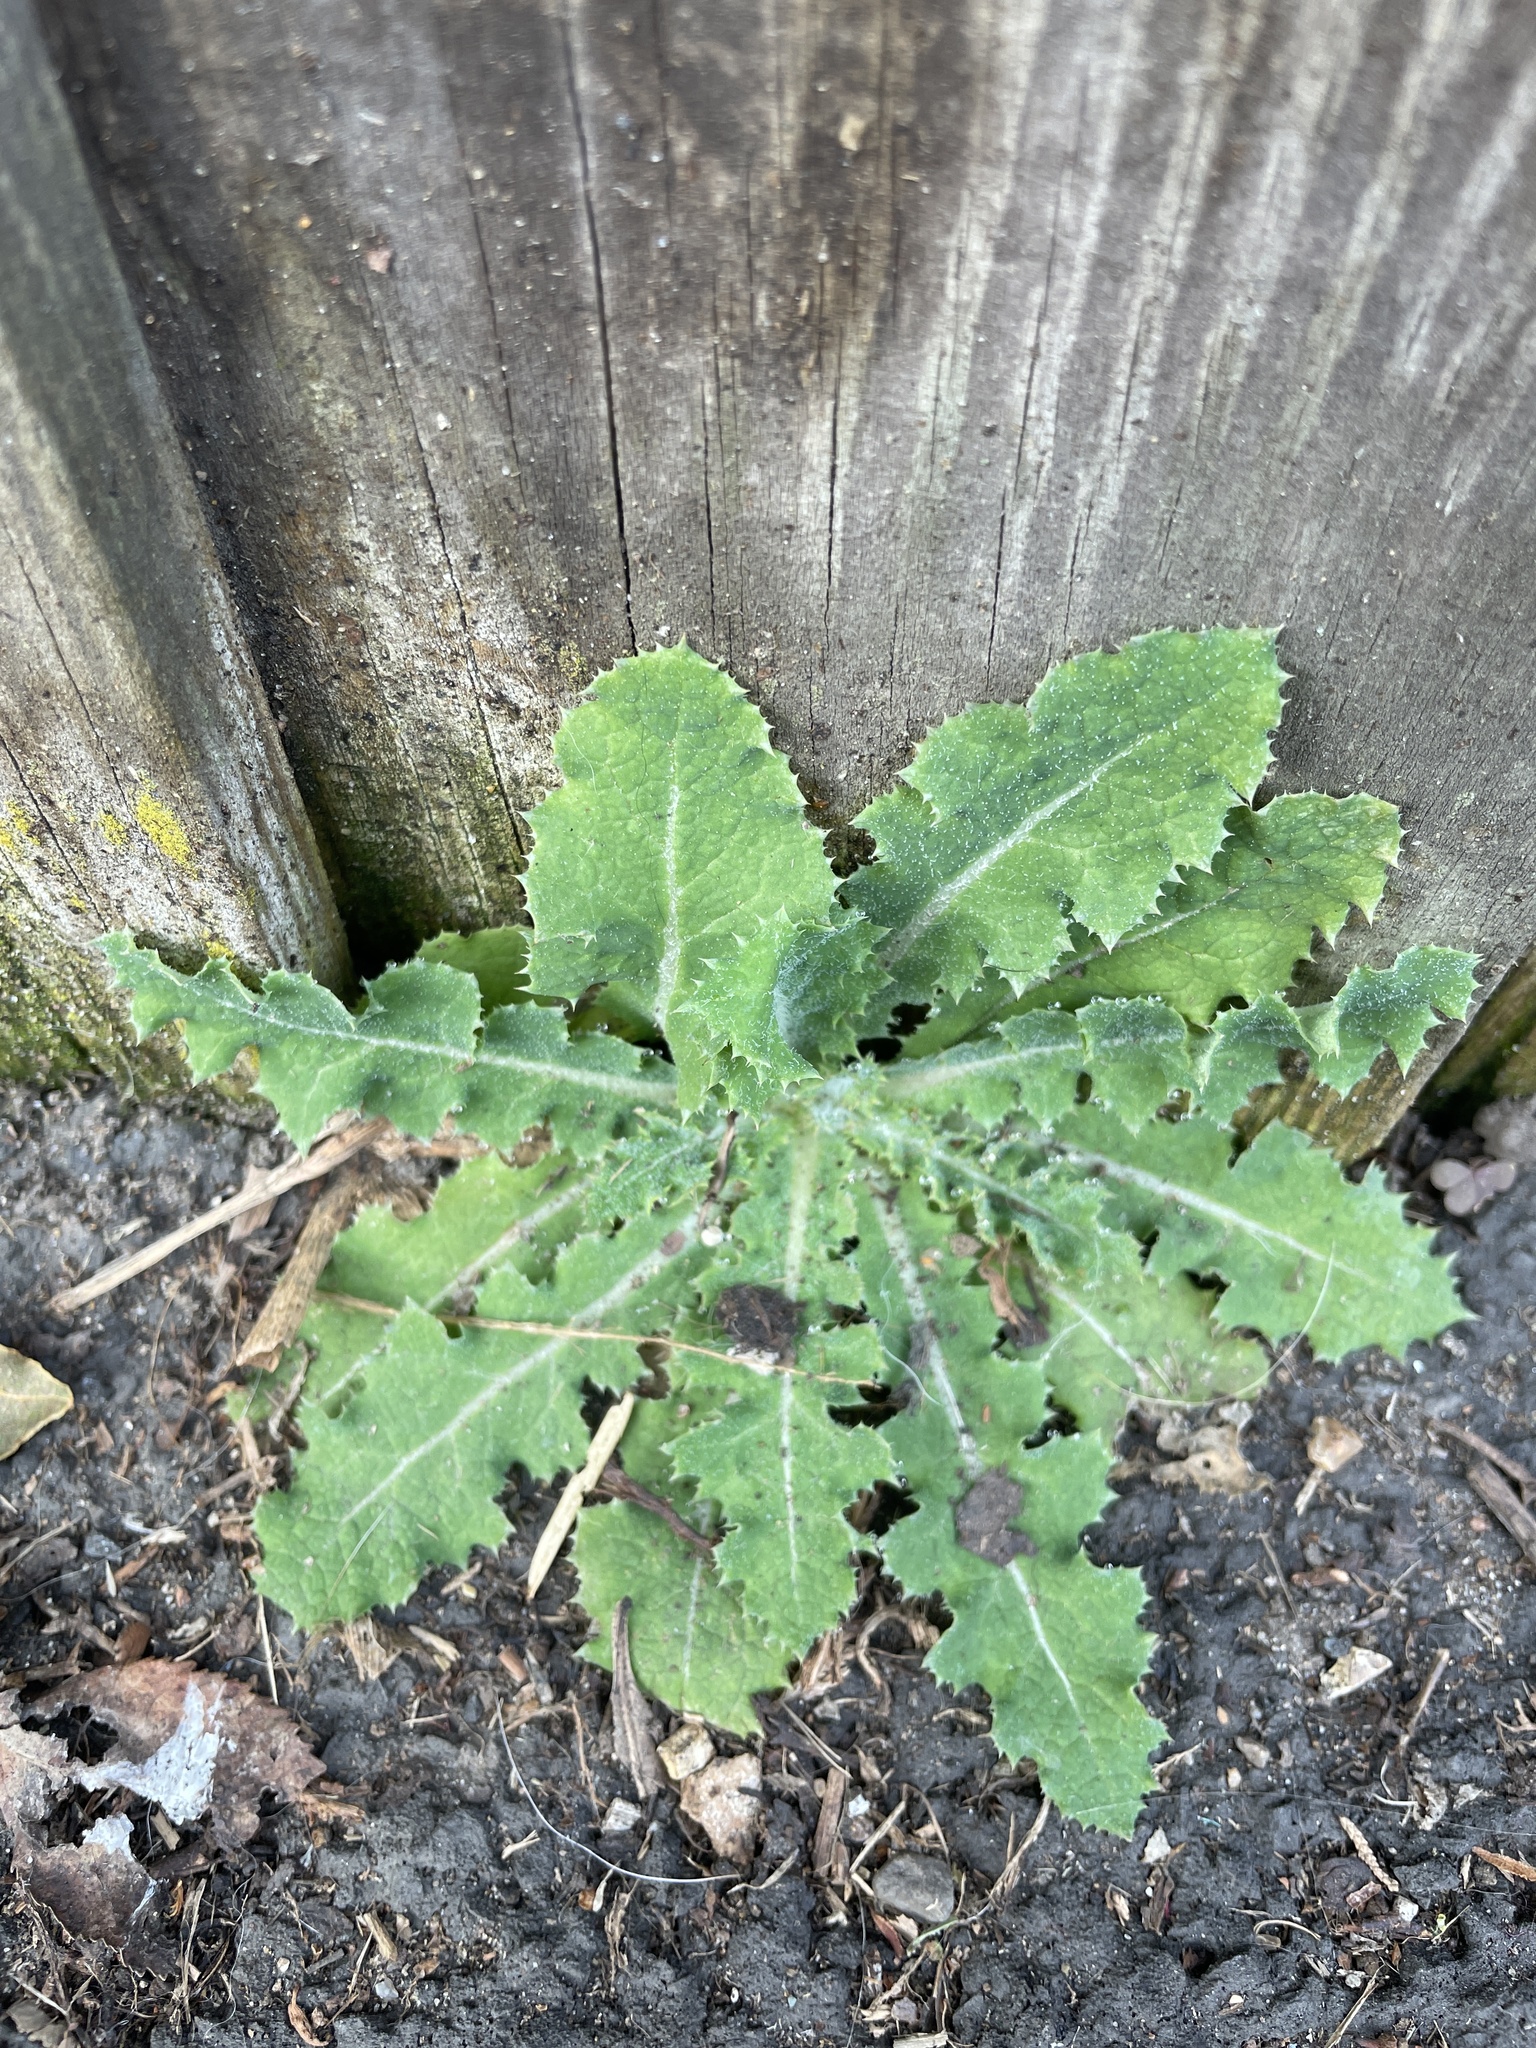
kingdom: Plantae
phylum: Tracheophyta
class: Magnoliopsida
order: Asterales
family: Asteraceae
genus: Sonchus
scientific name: Sonchus asper
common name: Prickly sow-thistle
